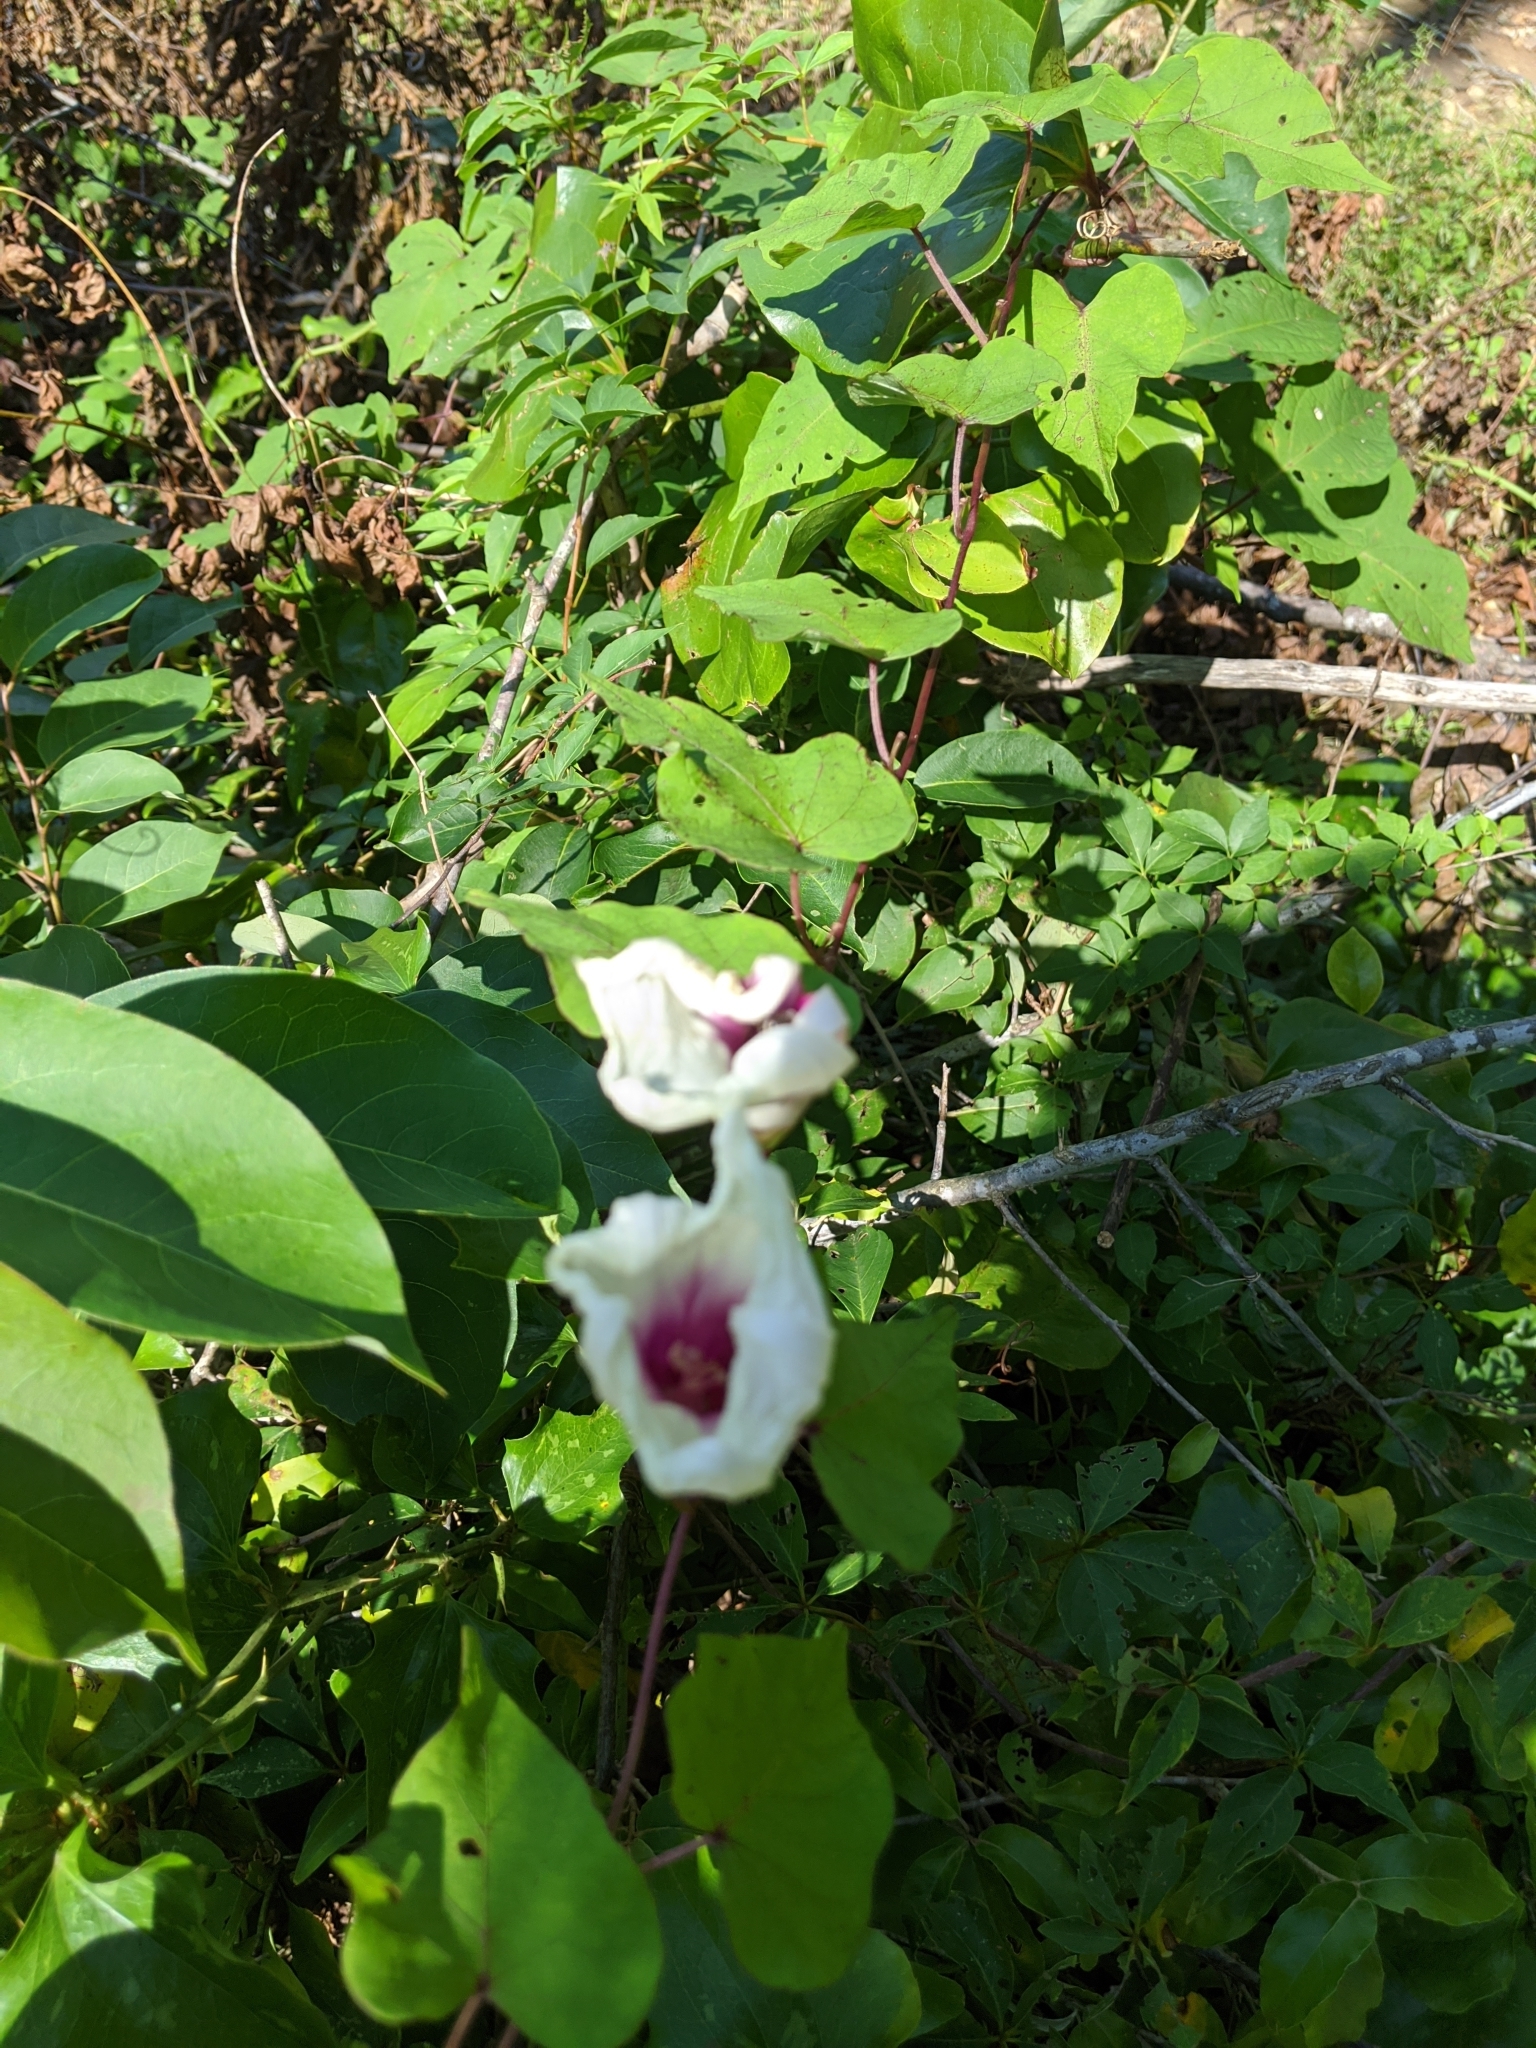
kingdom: Plantae
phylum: Tracheophyta
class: Magnoliopsida
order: Solanales
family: Convolvulaceae
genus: Ipomoea
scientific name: Ipomoea pandurata
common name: Man-of-the-earth
